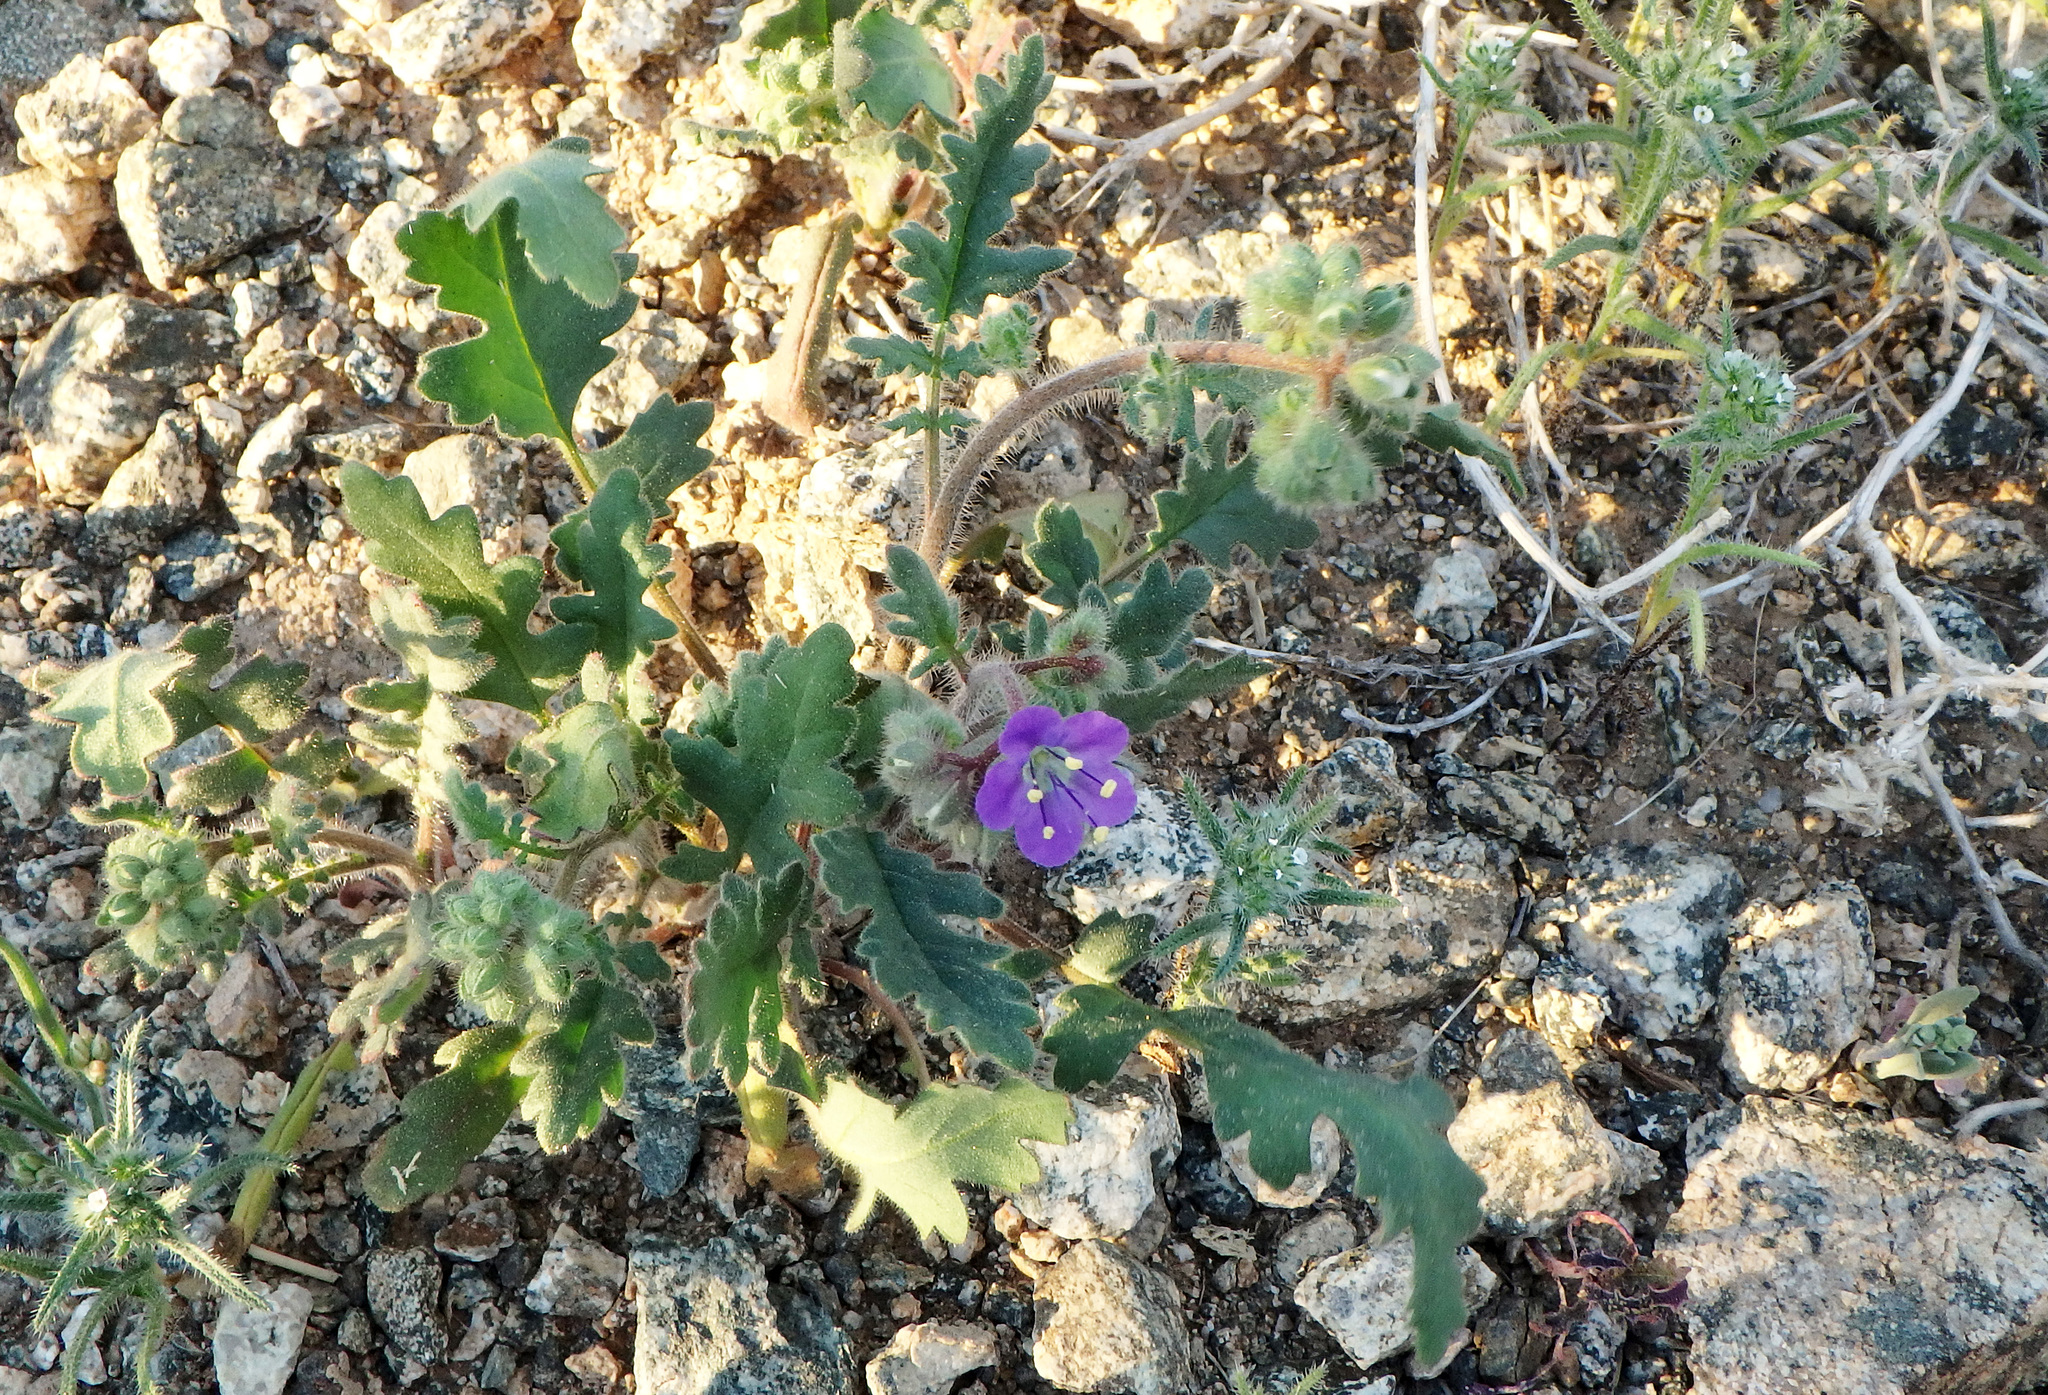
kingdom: Plantae
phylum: Tracheophyta
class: Magnoliopsida
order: Boraginales
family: Hydrophyllaceae
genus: Phacelia
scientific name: Phacelia crenulata
